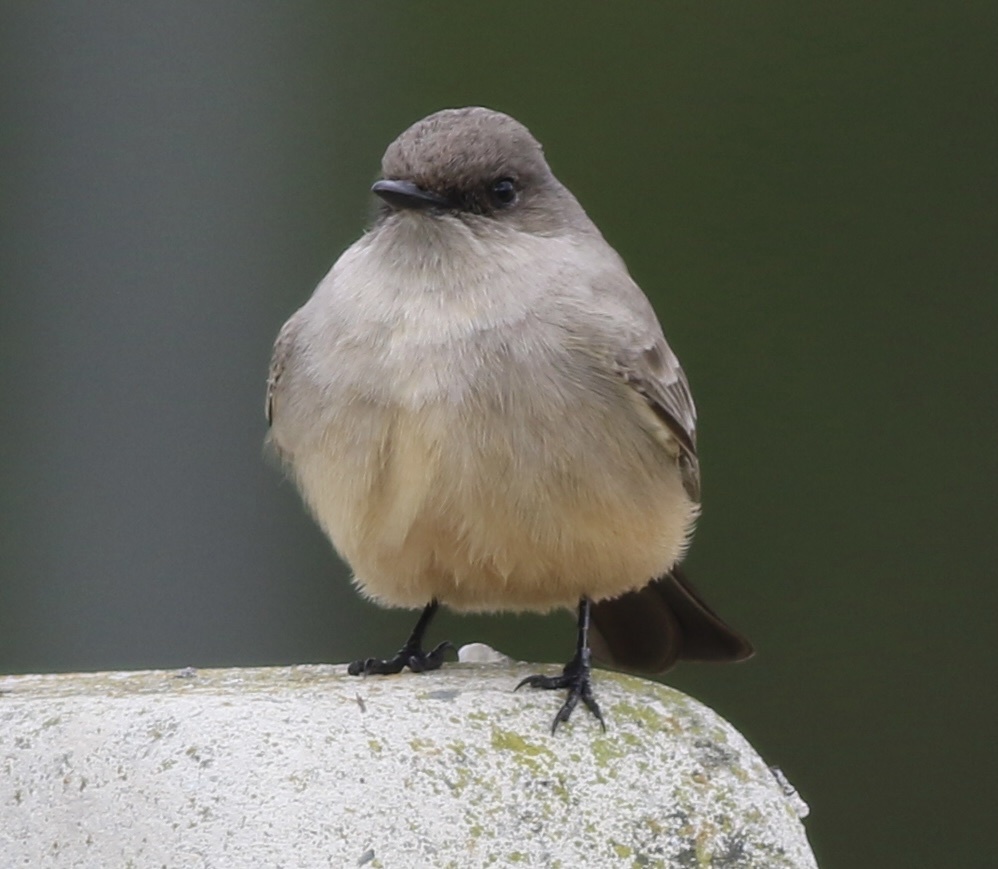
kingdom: Animalia
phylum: Chordata
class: Aves
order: Passeriformes
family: Tyrannidae
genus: Sayornis
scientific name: Sayornis saya
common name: Say's phoebe
